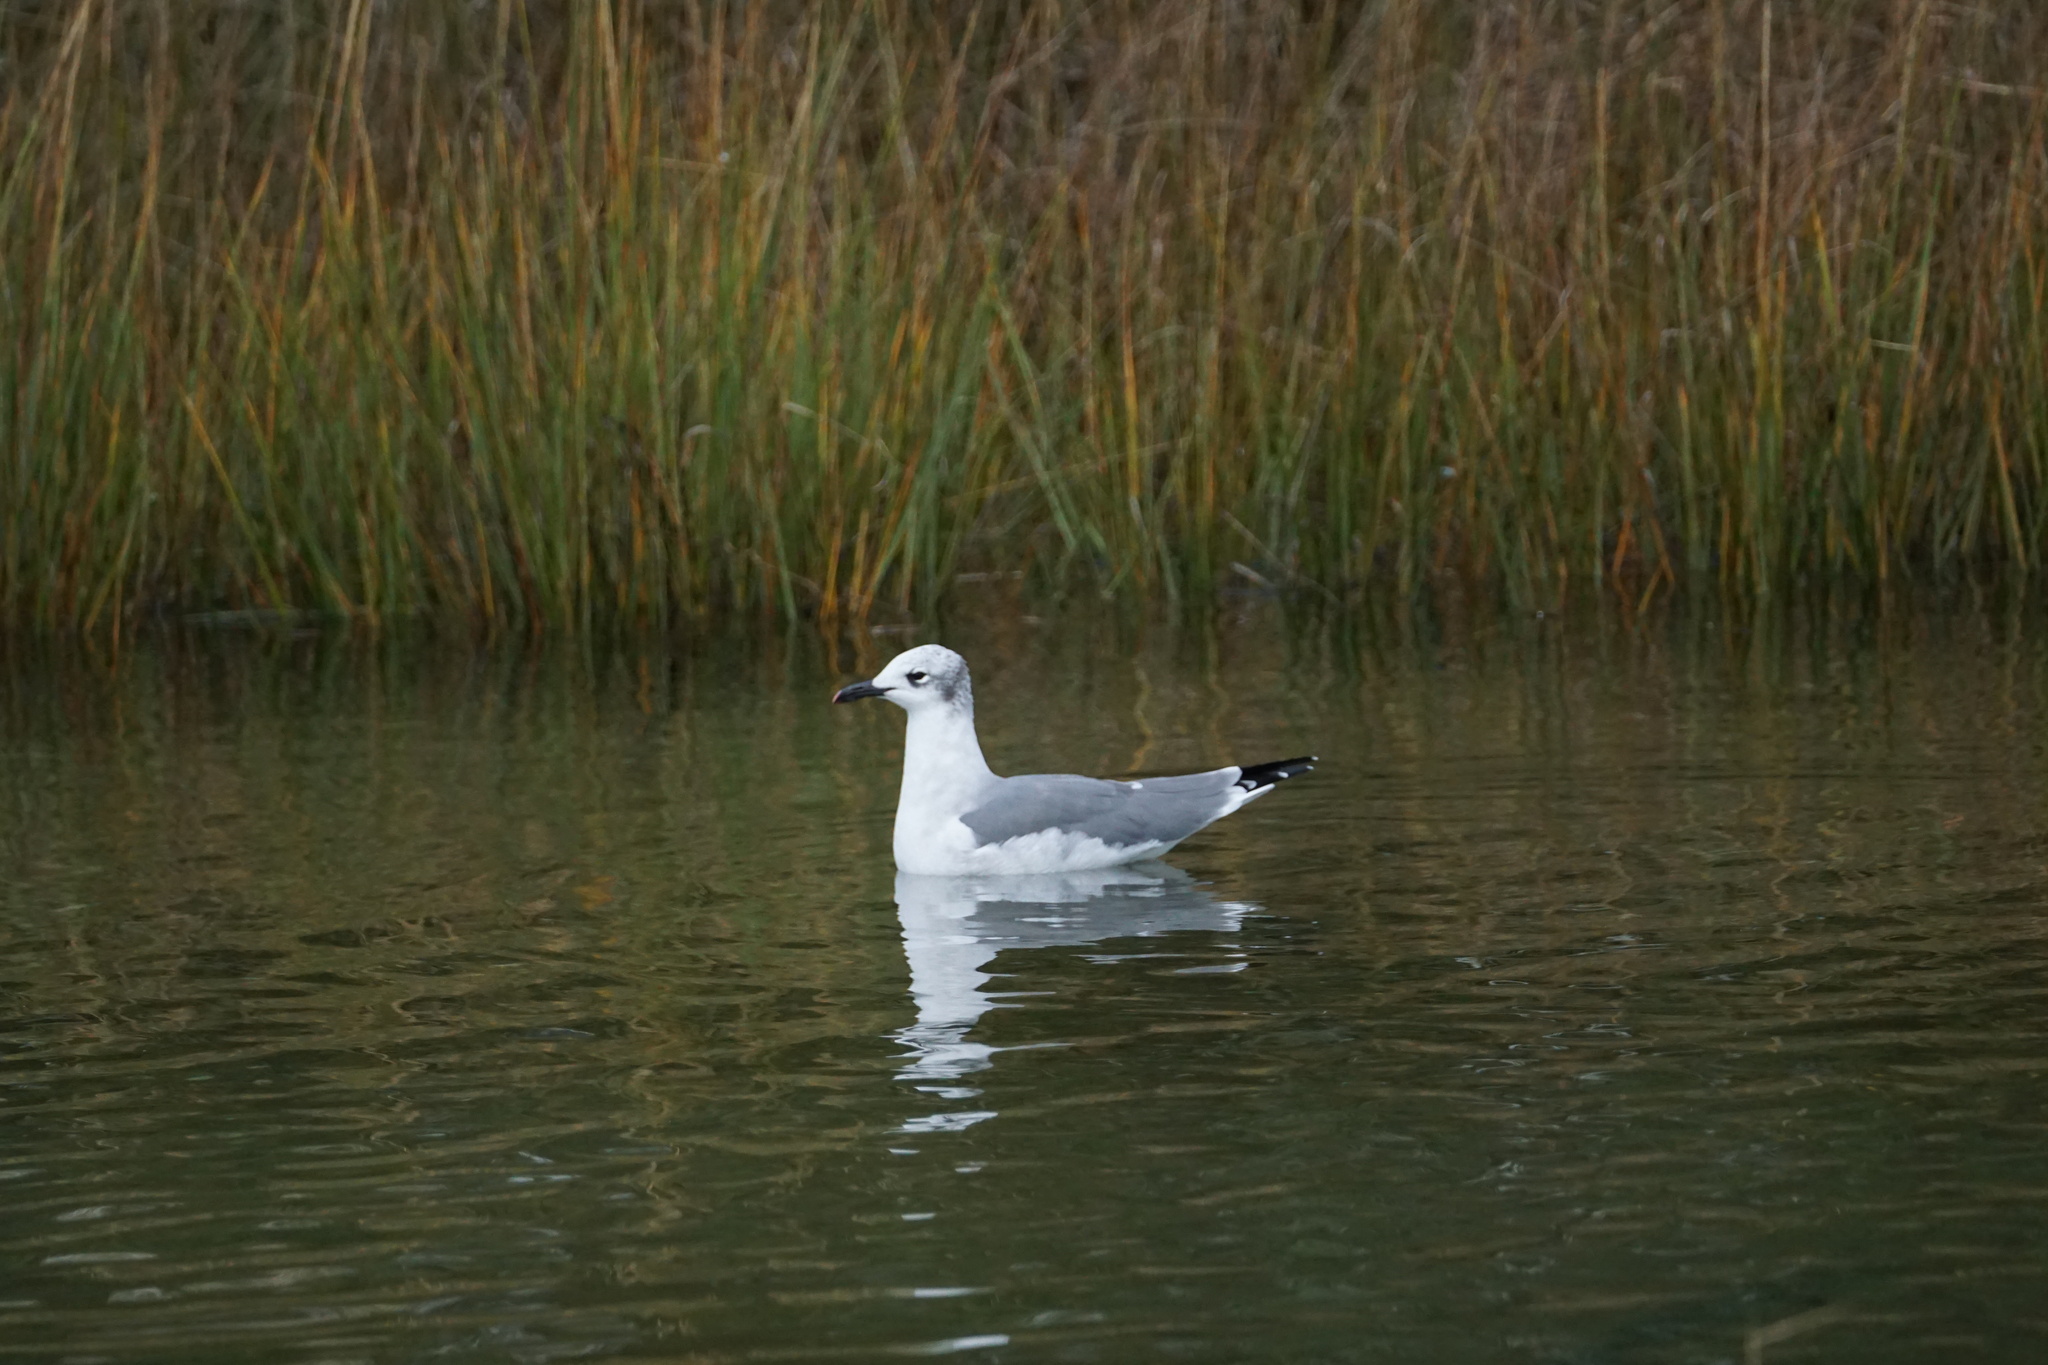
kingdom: Animalia
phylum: Chordata
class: Aves
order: Charadriiformes
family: Laridae
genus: Leucophaeus
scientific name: Leucophaeus atricilla
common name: Laughing gull
